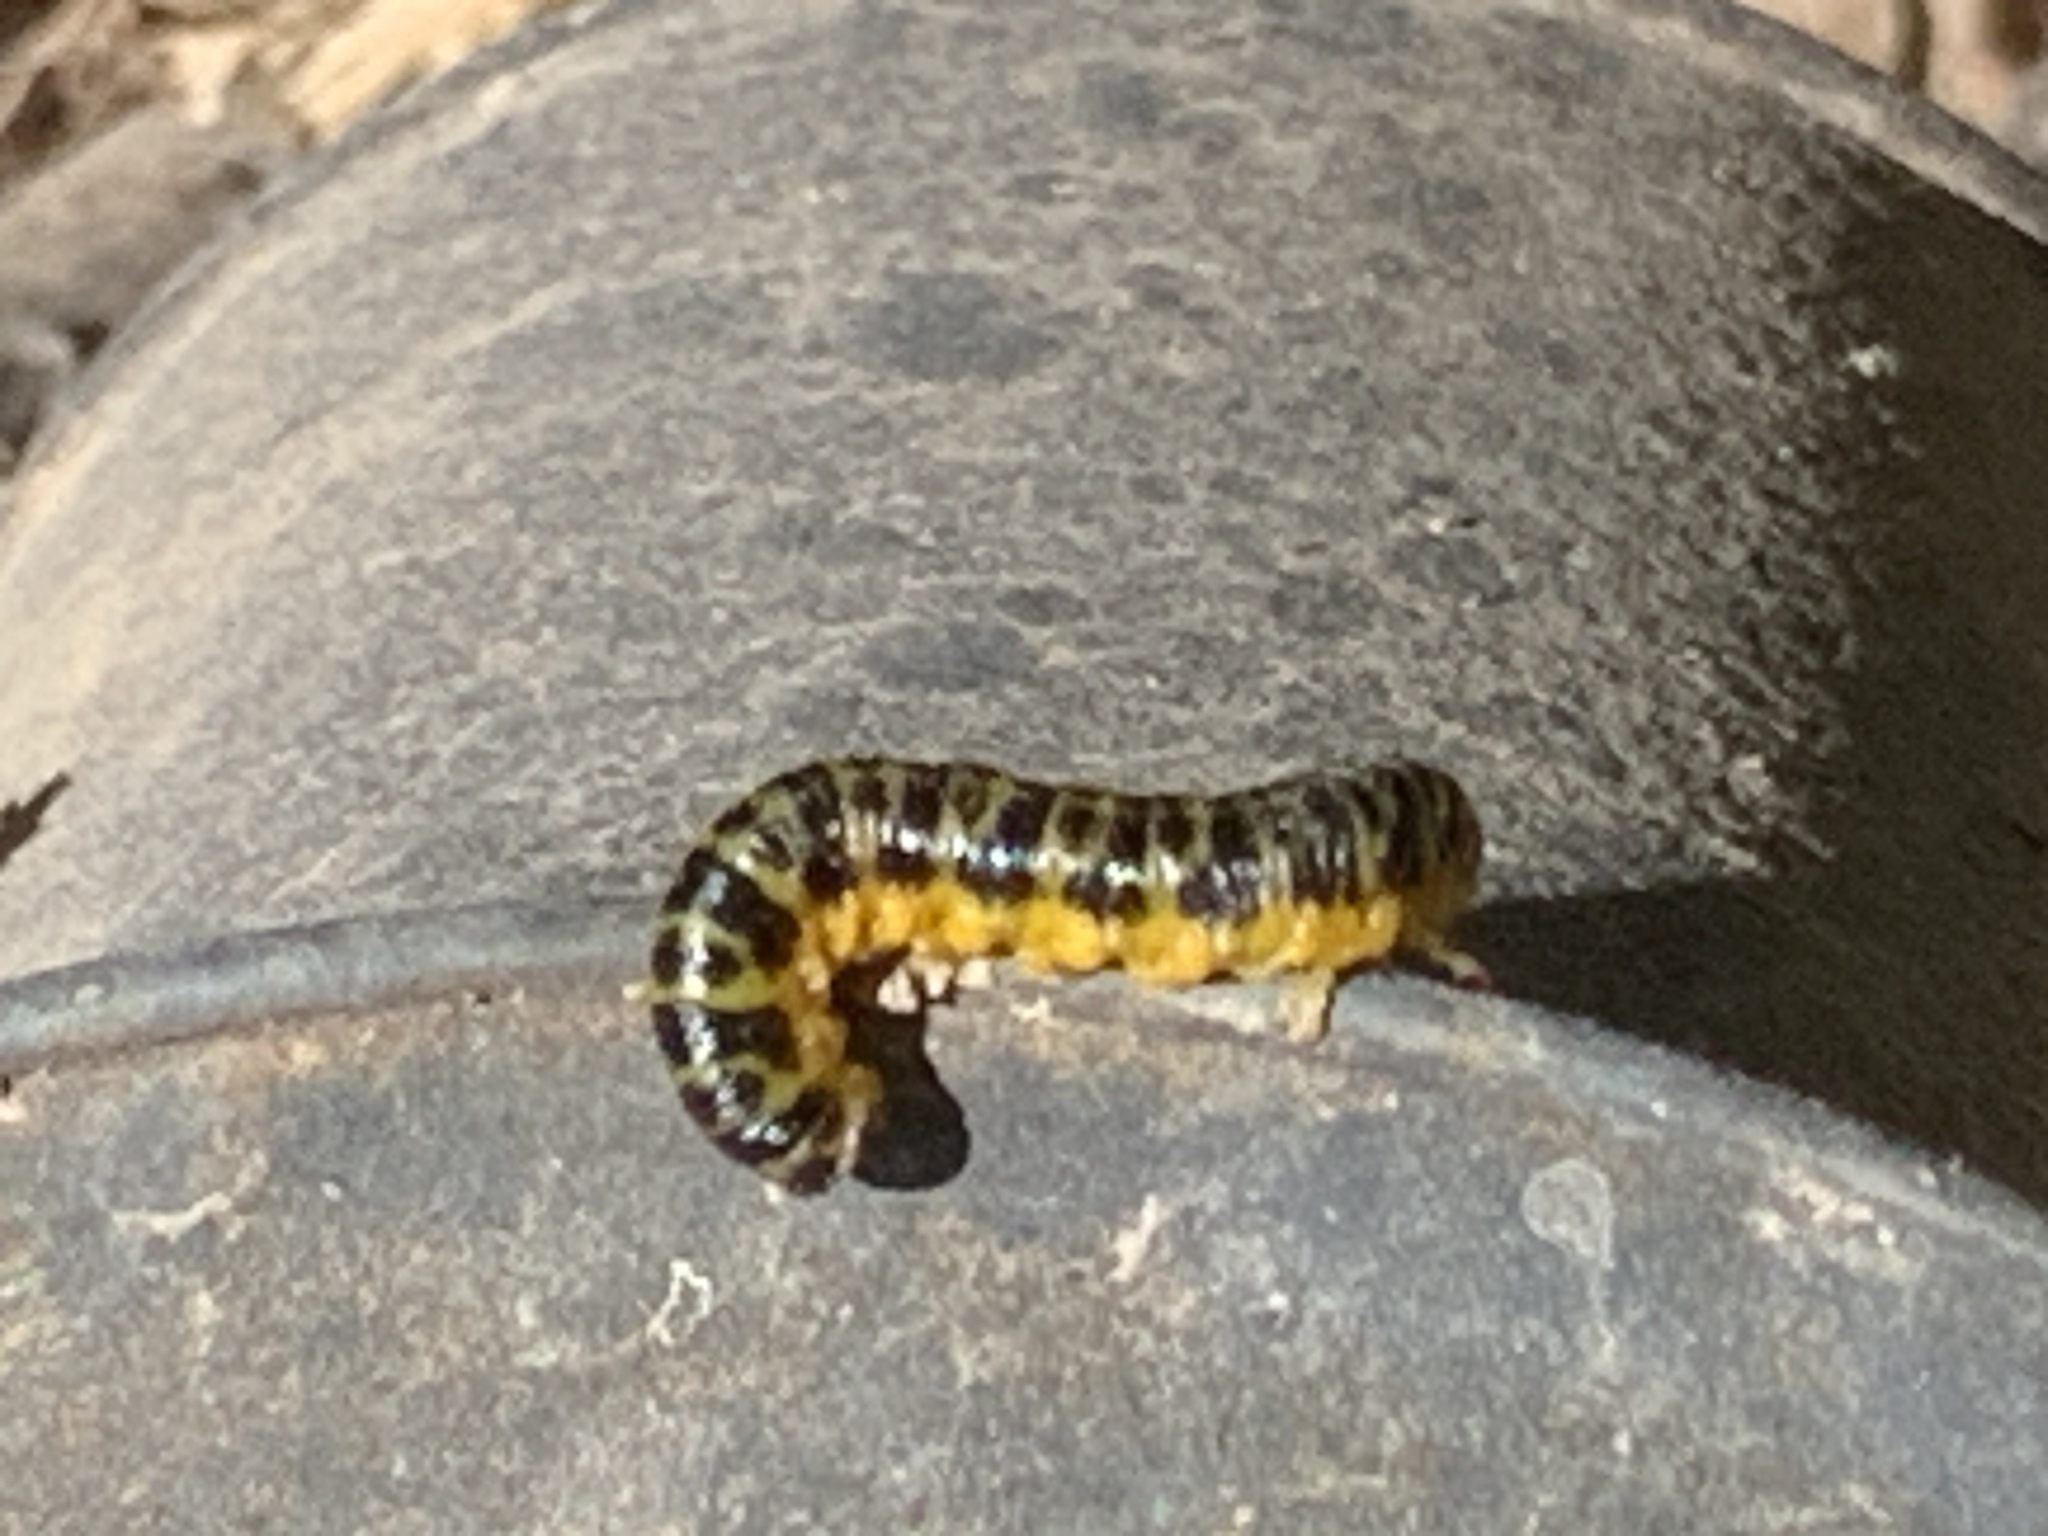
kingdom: Animalia
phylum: Arthropoda
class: Insecta
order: Hymenoptera
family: Tenthredinidae
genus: Macremphytus
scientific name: Macremphytus testaceus
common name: Dogwood sawfly
